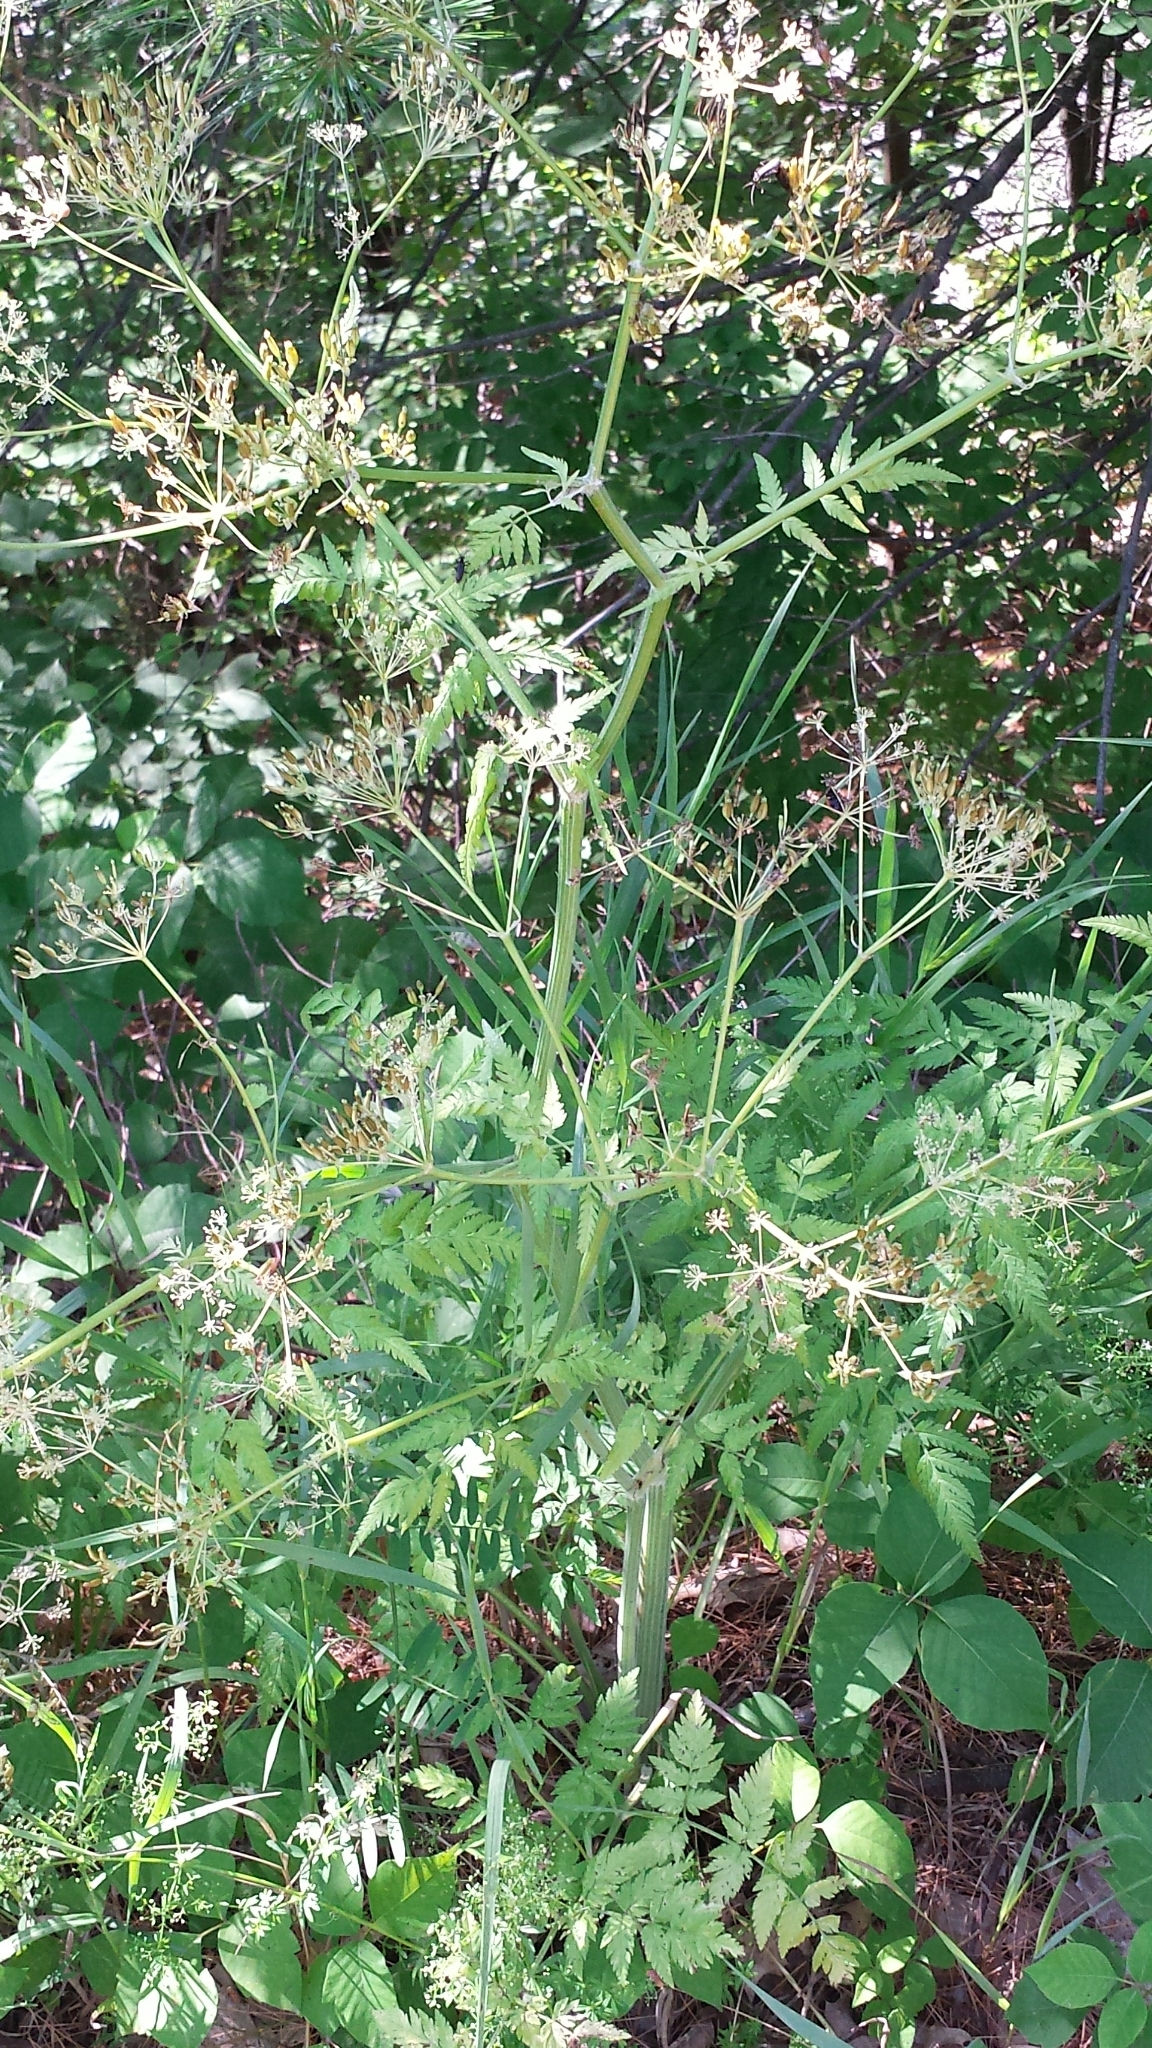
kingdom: Plantae
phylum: Tracheophyta
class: Magnoliopsida
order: Apiales
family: Apiaceae
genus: Anthriscus
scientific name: Anthriscus sylvestris
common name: Cow parsley
